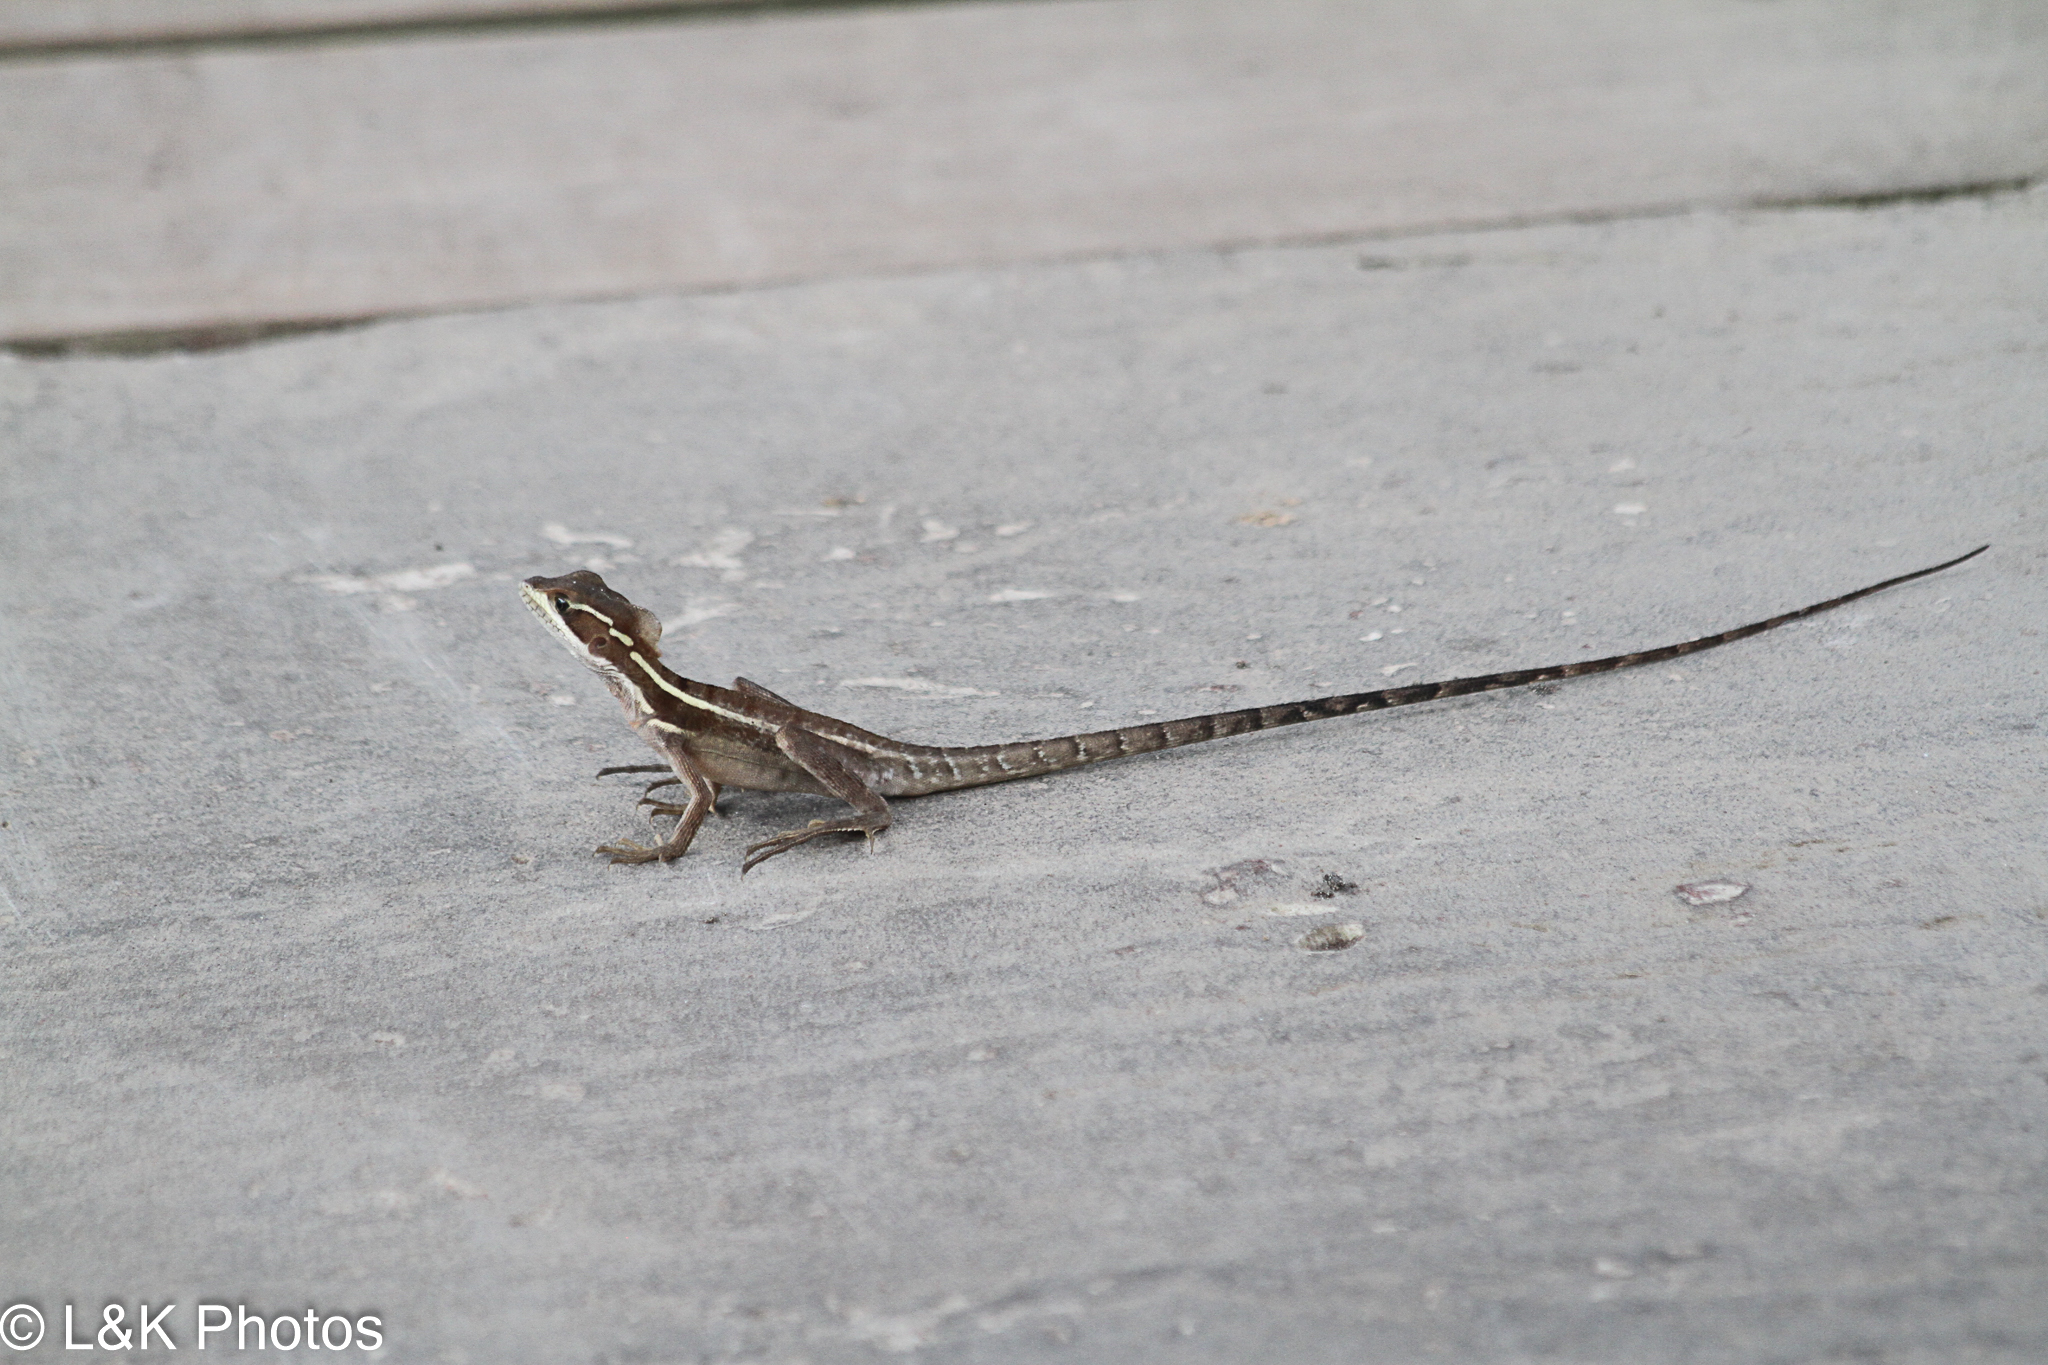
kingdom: Animalia
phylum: Chordata
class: Squamata
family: Corytophanidae
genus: Basiliscus
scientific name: Basiliscus vittatus
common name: Brown basilisk
